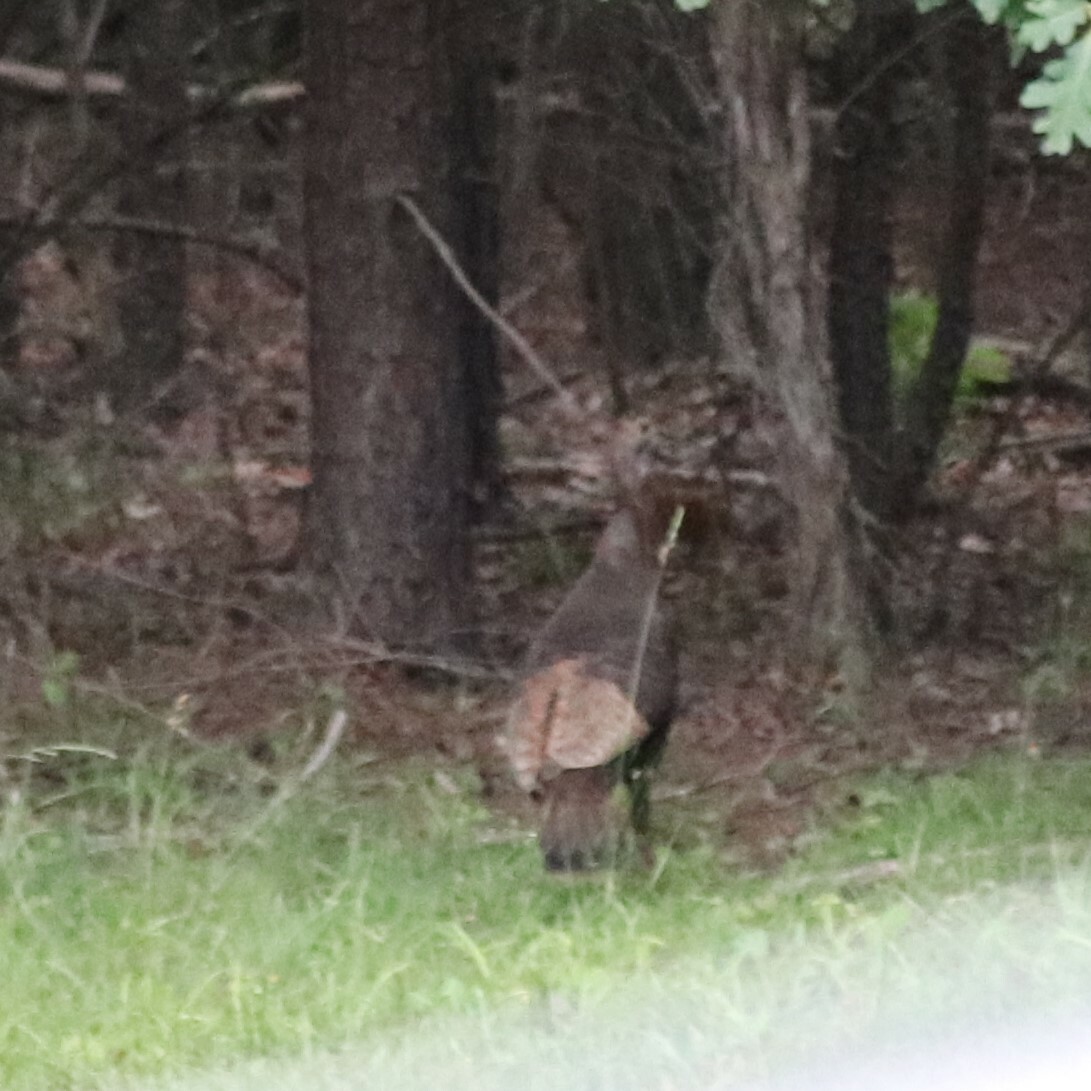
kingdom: Animalia
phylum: Chordata
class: Aves
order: Galliformes
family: Phasianidae
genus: Meleagris
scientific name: Meleagris gallopavo
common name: Wild turkey
